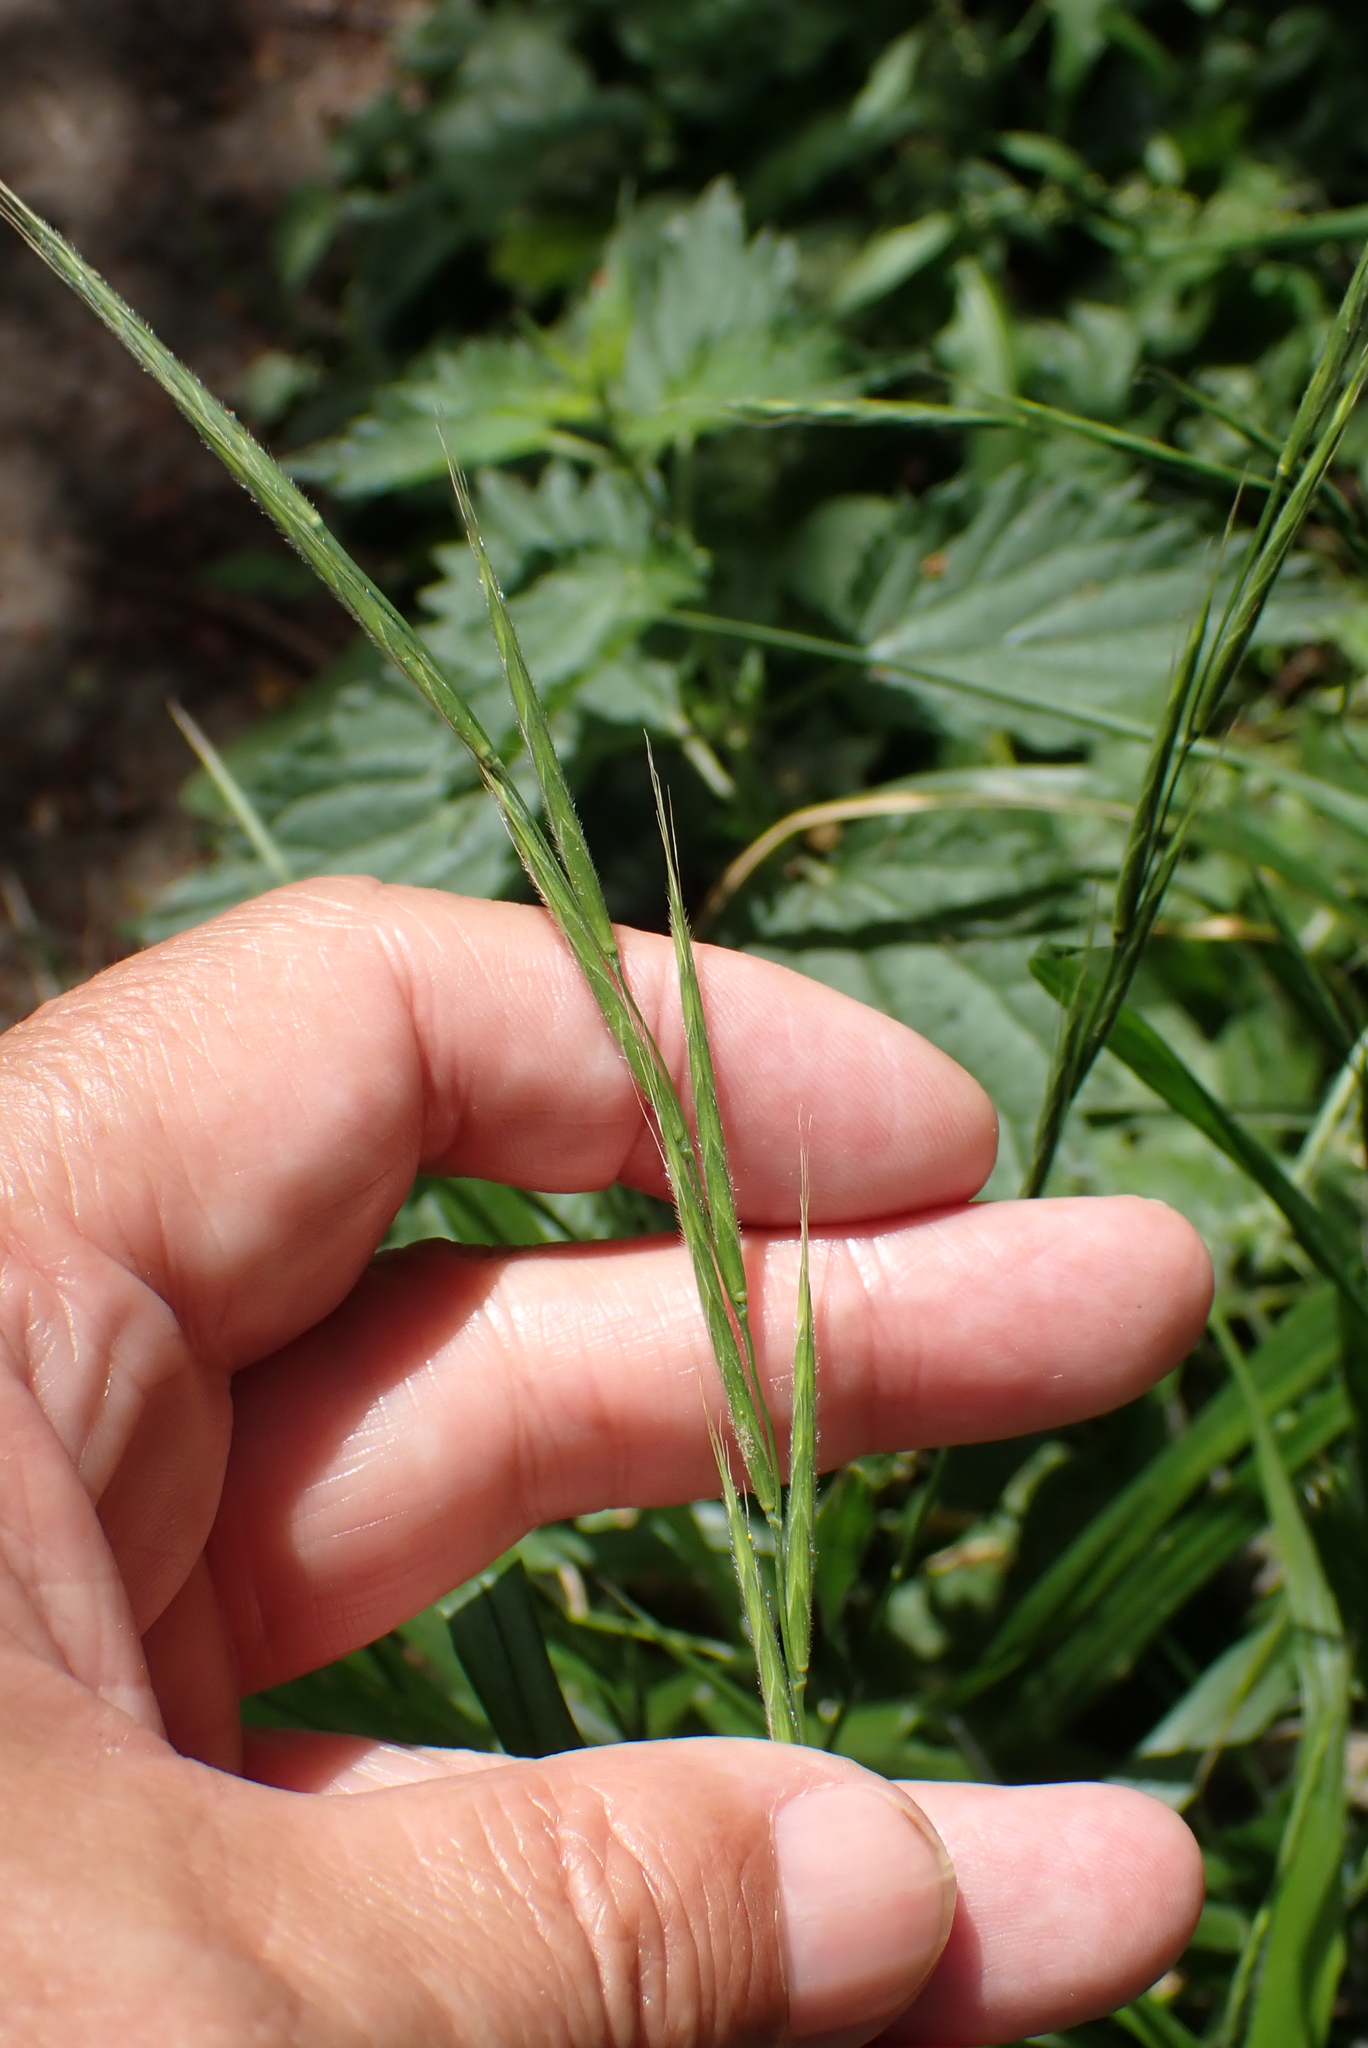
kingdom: Plantae
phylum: Tracheophyta
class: Liliopsida
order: Poales
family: Poaceae
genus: Brachypodium
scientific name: Brachypodium sylvaticum
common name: False-brome
